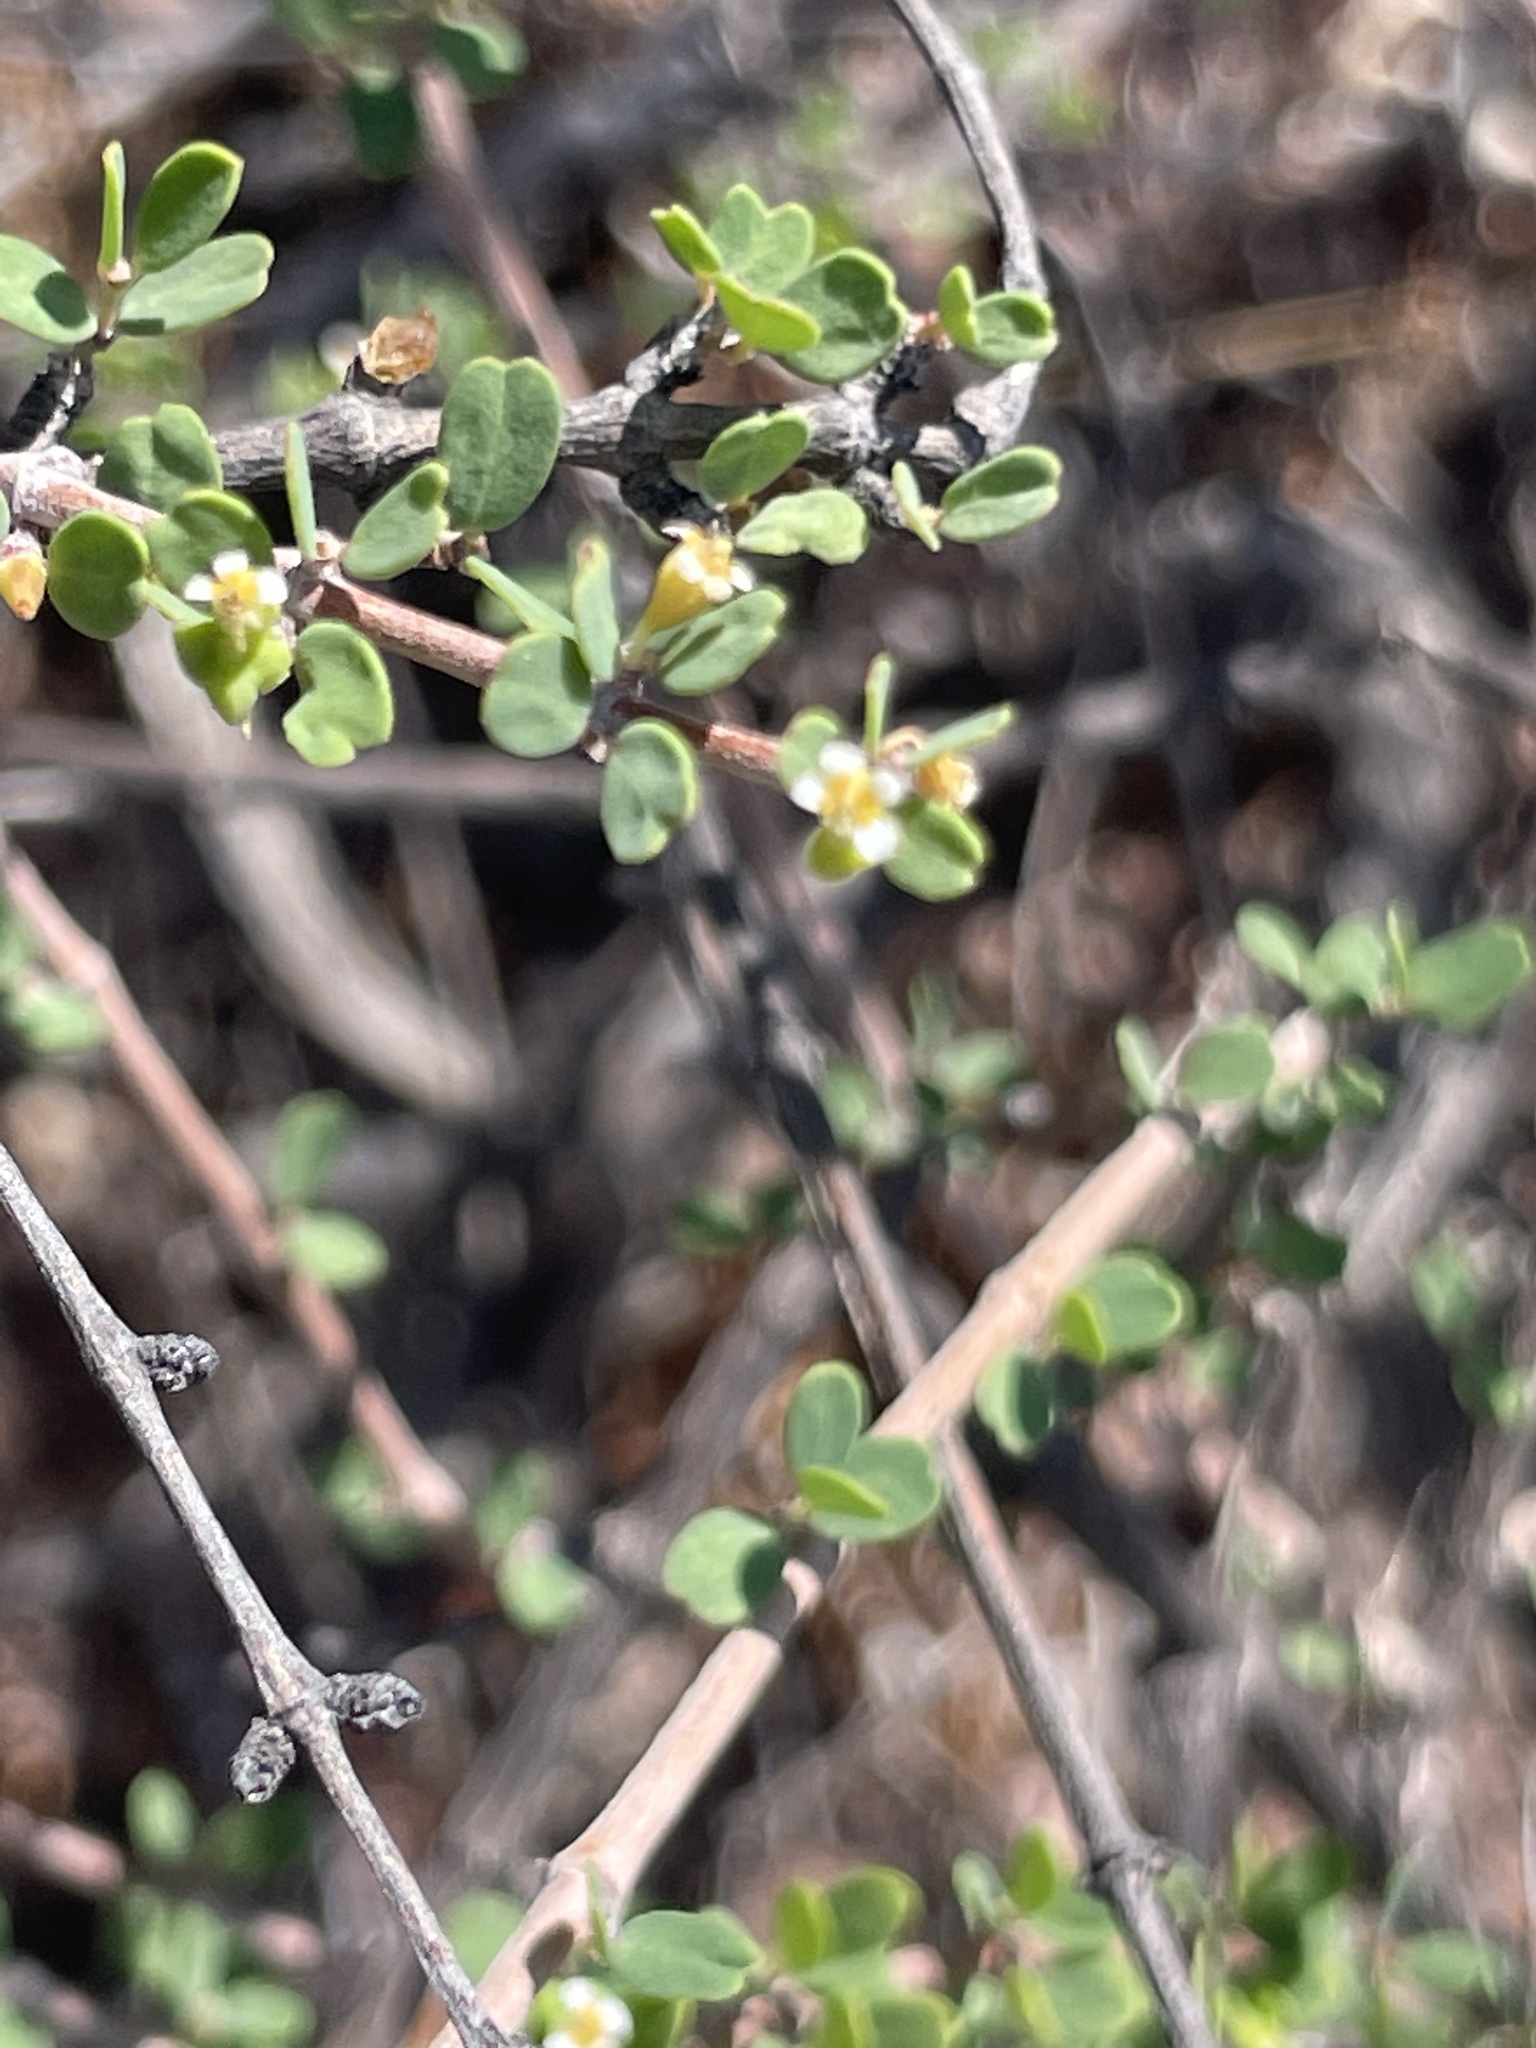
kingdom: Plantae
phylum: Tracheophyta
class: Magnoliopsida
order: Malpighiales
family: Euphorbiaceae
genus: Euphorbia
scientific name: Euphorbia magdalenae
